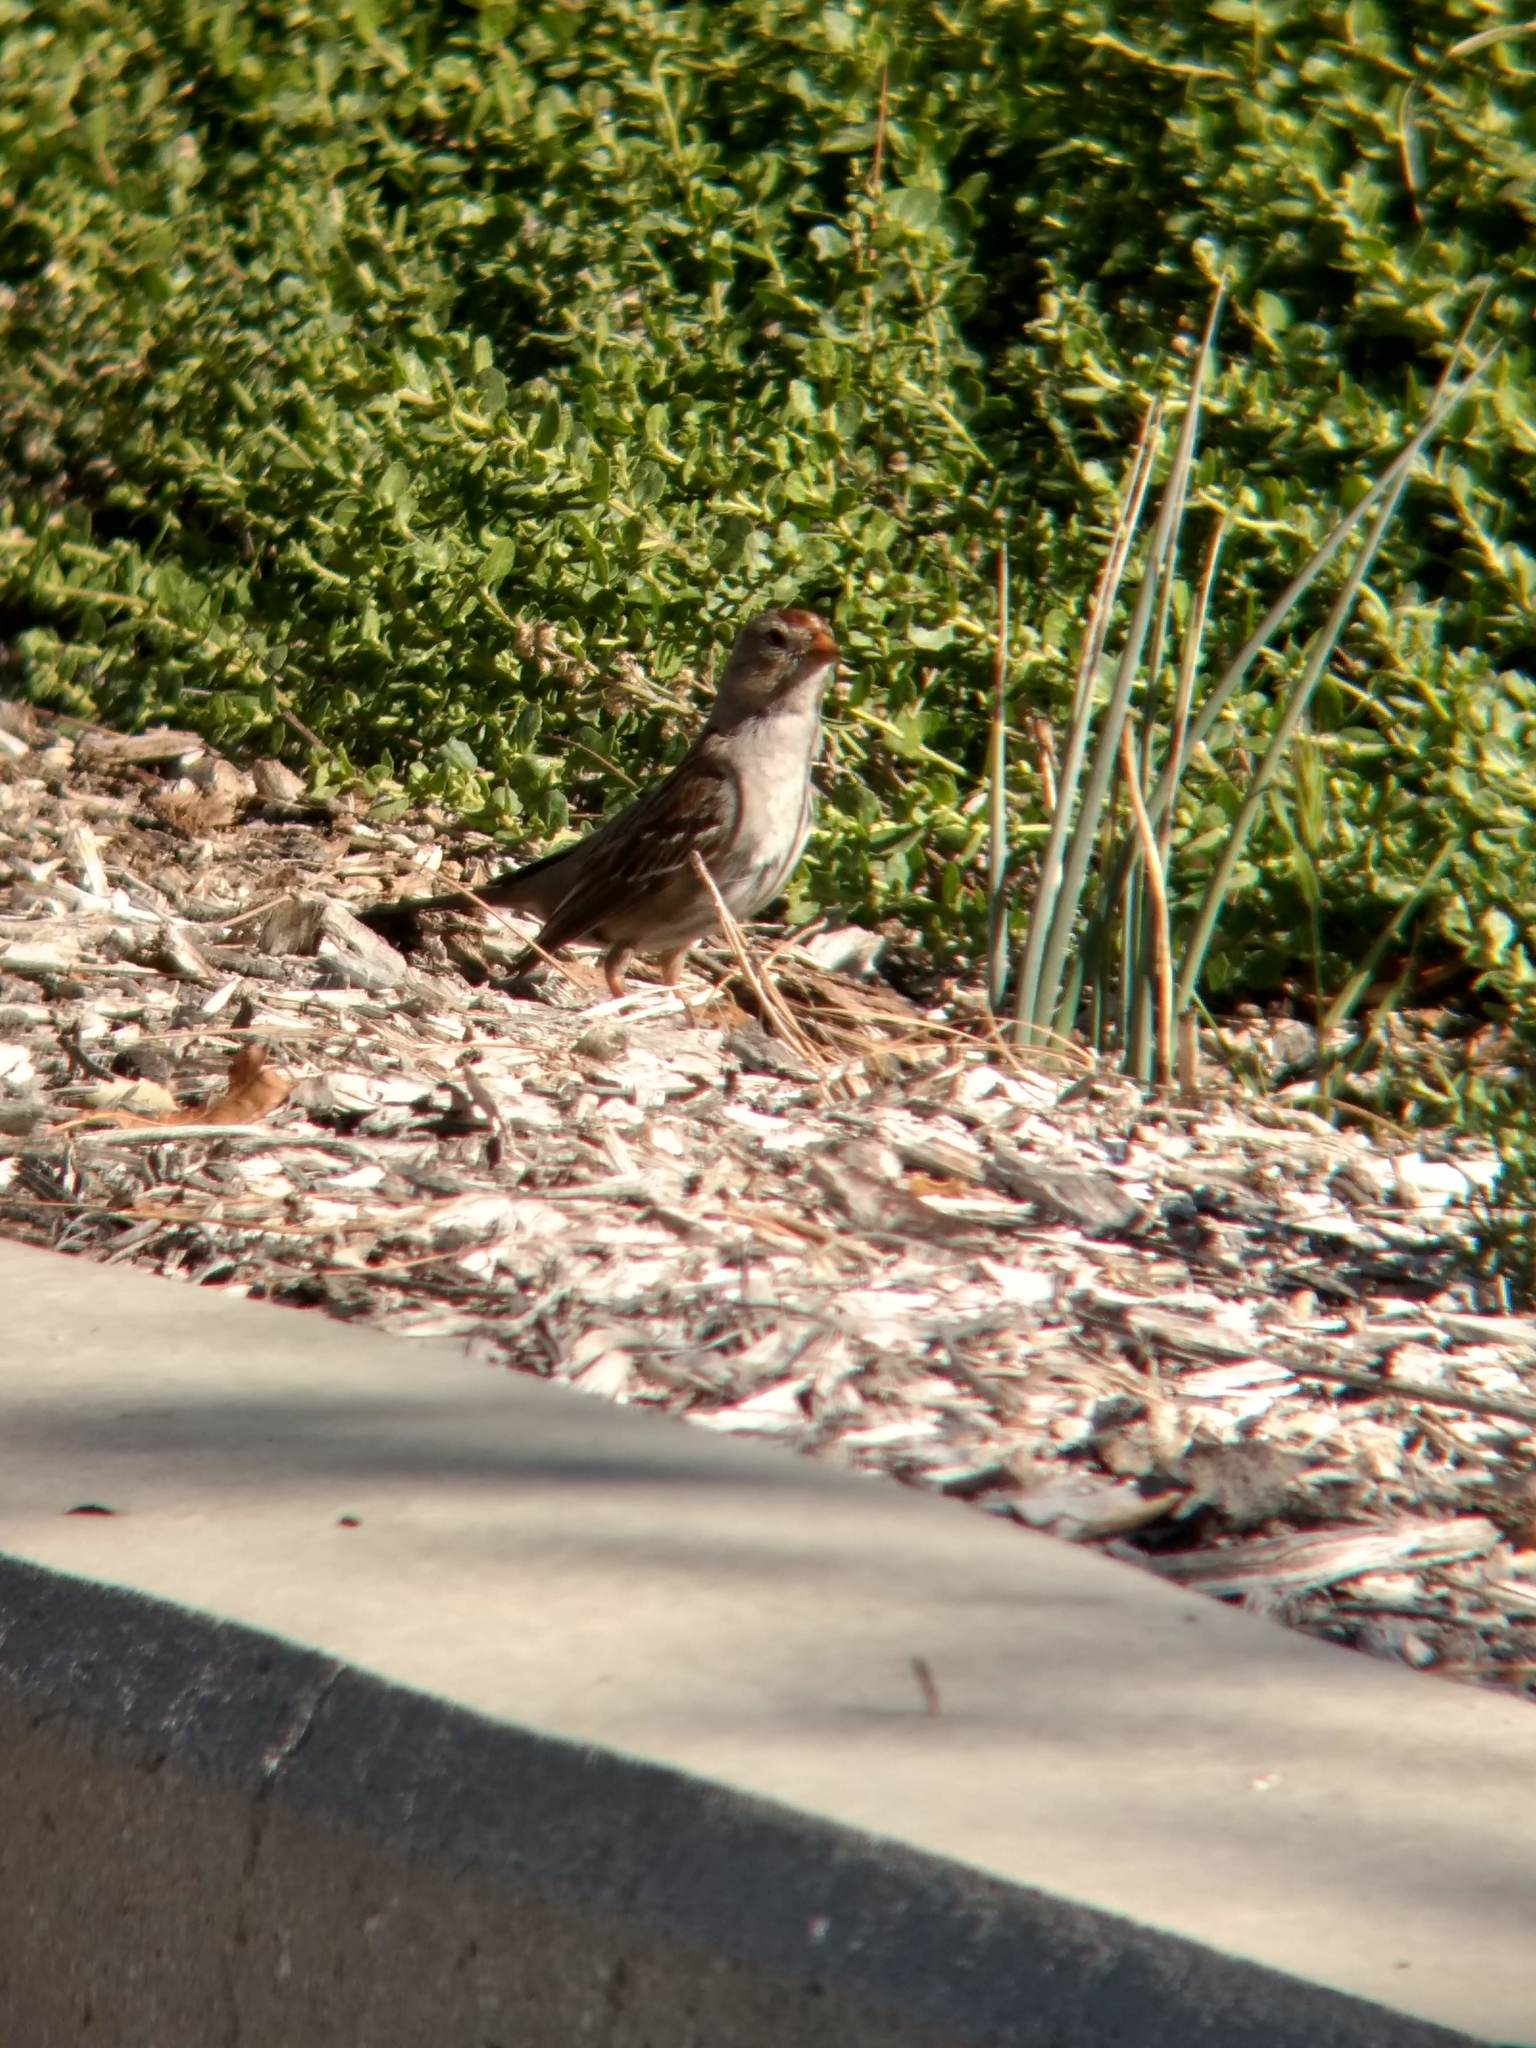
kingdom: Animalia
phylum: Chordata
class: Aves
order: Passeriformes
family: Passerellidae
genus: Zonotrichia
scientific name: Zonotrichia leucophrys
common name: White-crowned sparrow
